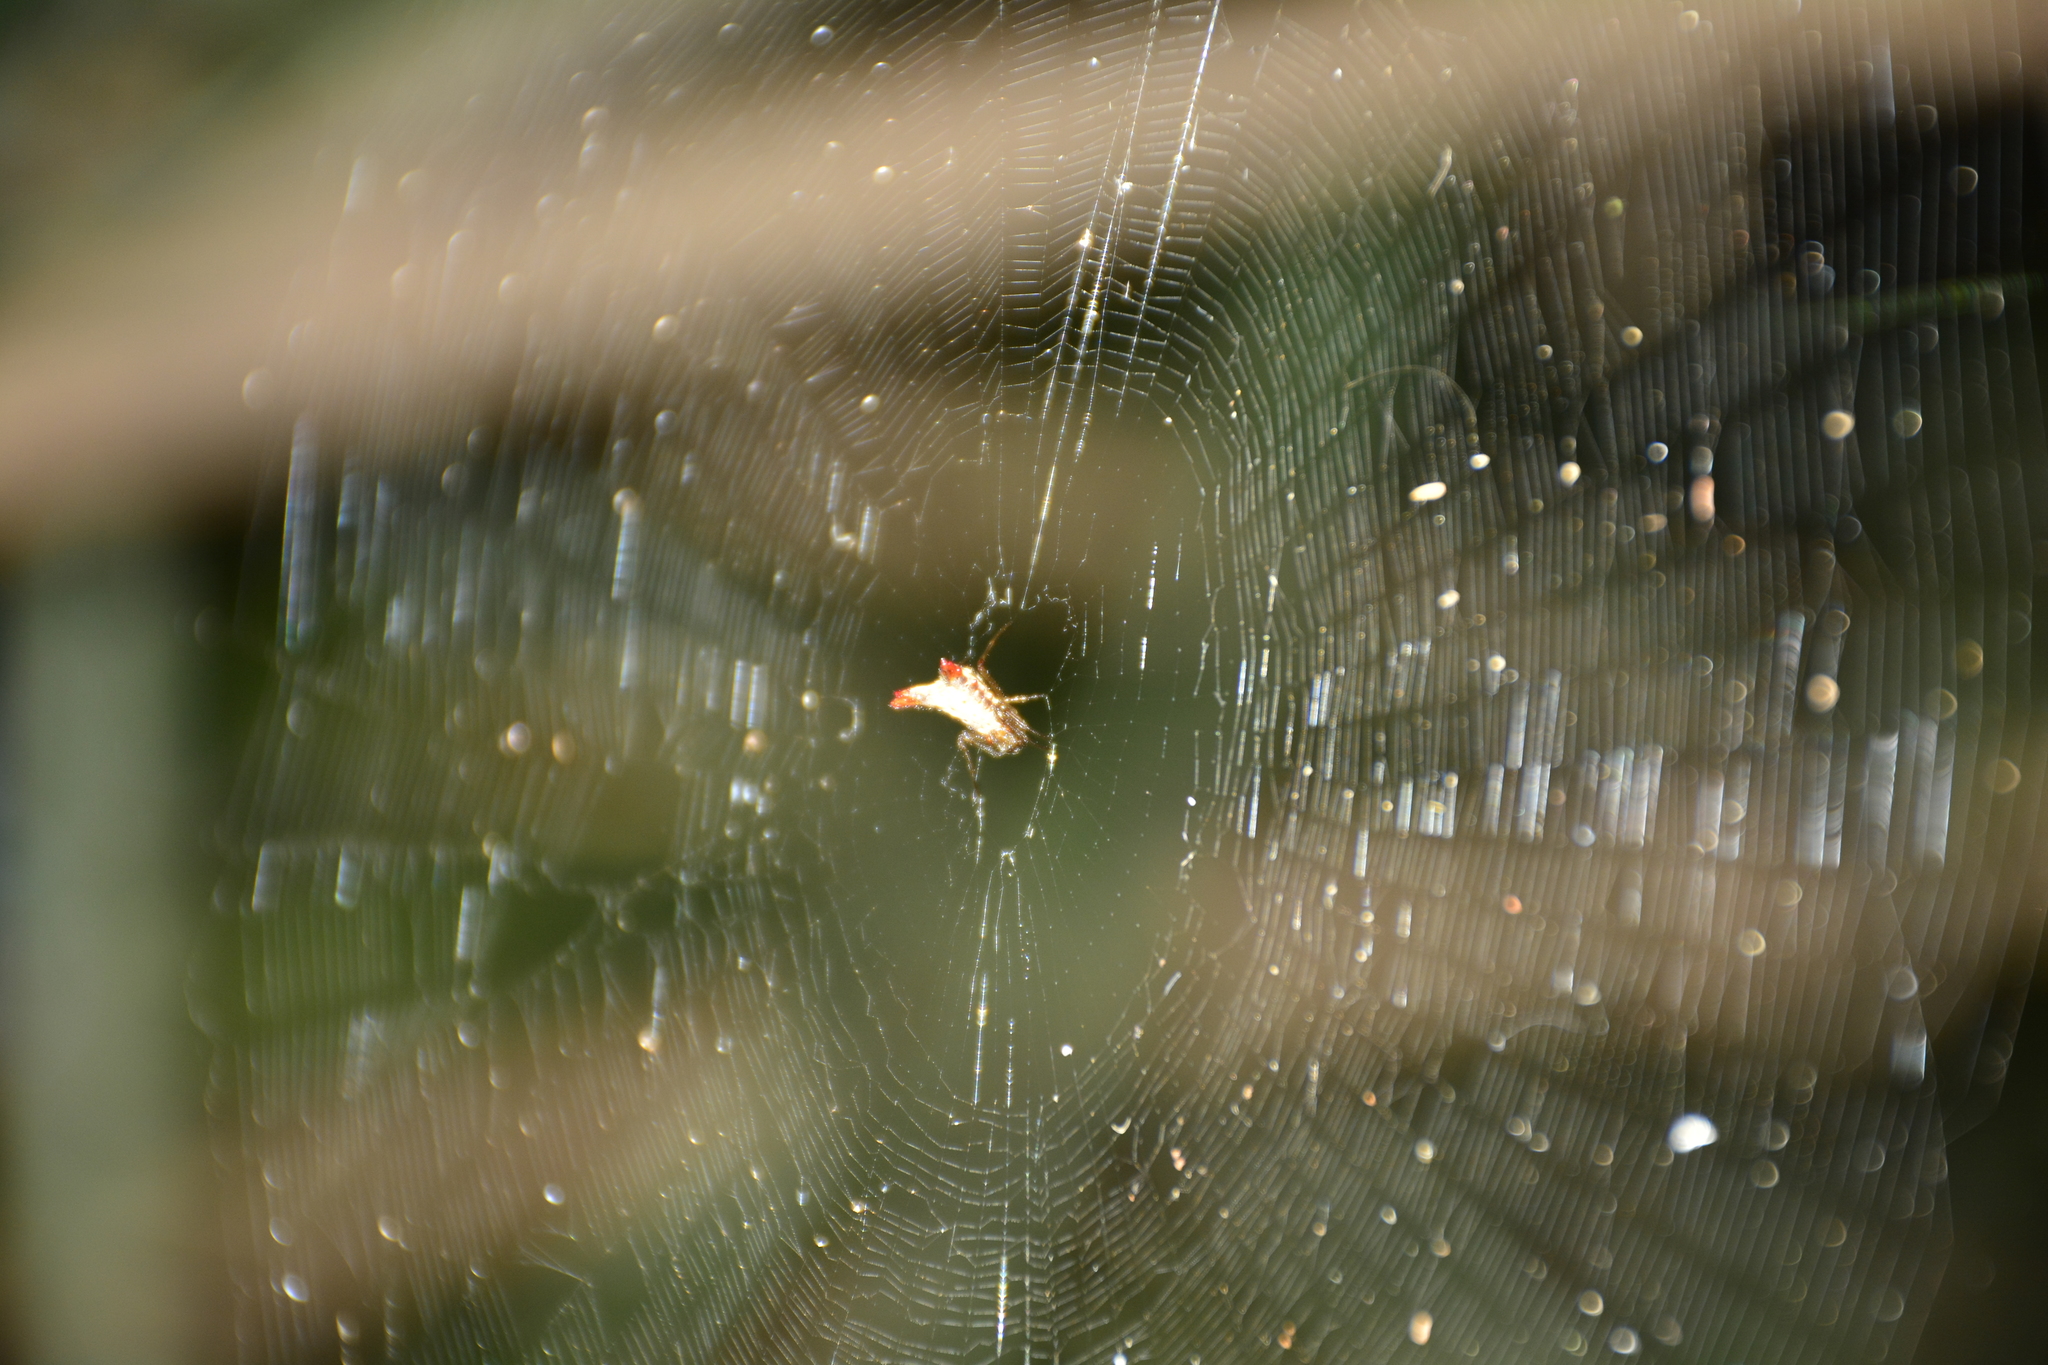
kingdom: Animalia
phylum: Arthropoda
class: Arachnida
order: Araneae
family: Araneidae
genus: Micrathena
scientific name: Micrathena plana
